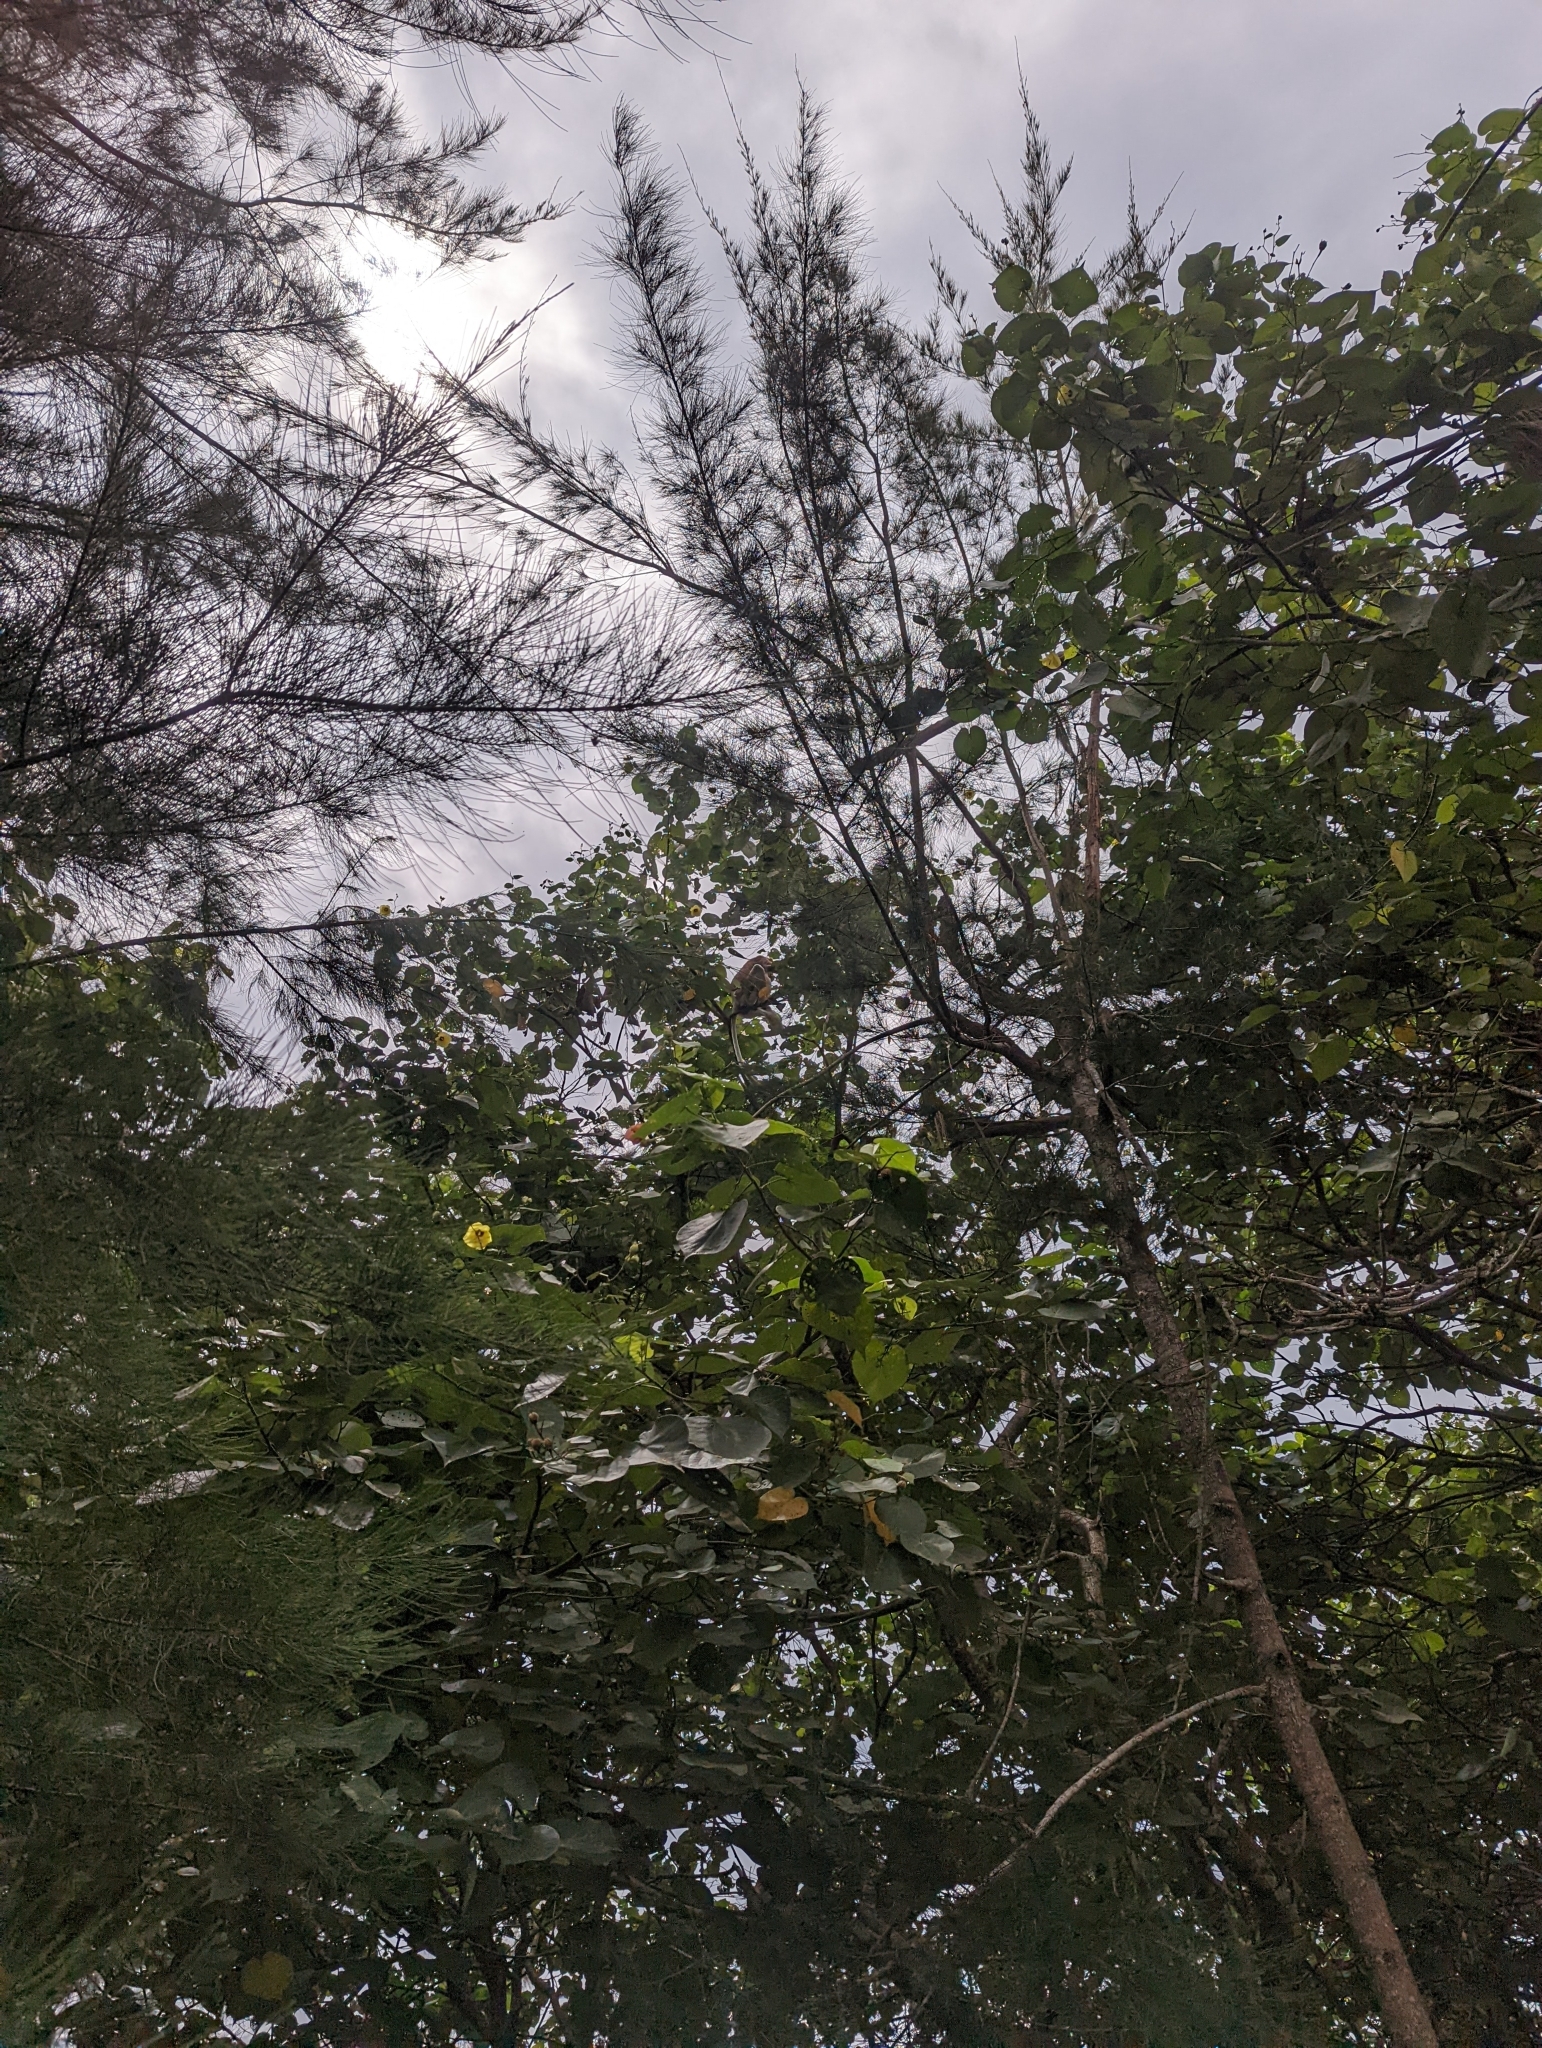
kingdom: Animalia
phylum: Chordata
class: Mammalia
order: Primates
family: Cercopithecidae
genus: Nasalis
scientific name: Nasalis larvatus
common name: Proboscis monkey
